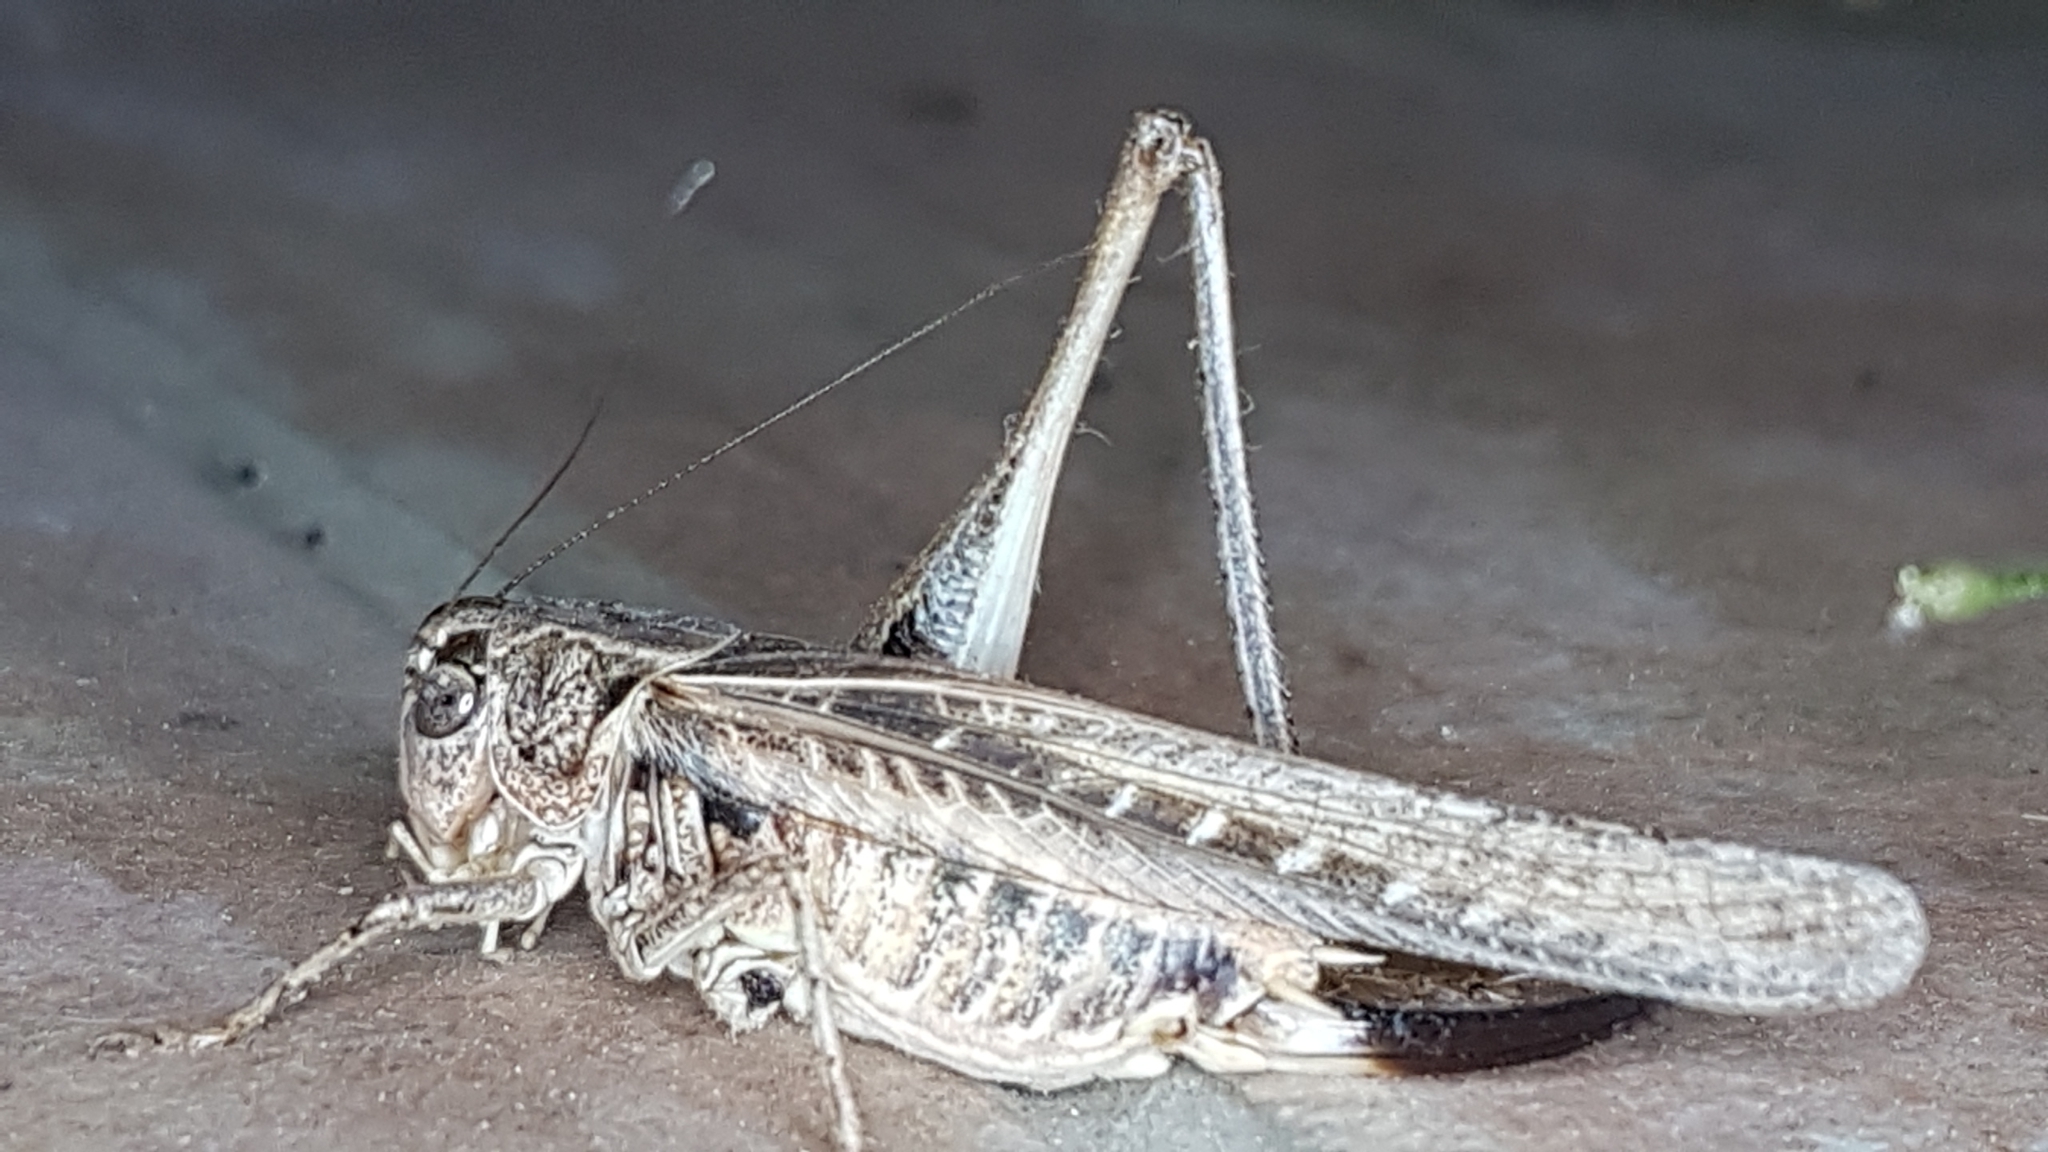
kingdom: Animalia
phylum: Arthropoda
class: Insecta
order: Orthoptera
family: Tettigoniidae
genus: Platycleis
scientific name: Platycleis affinis
